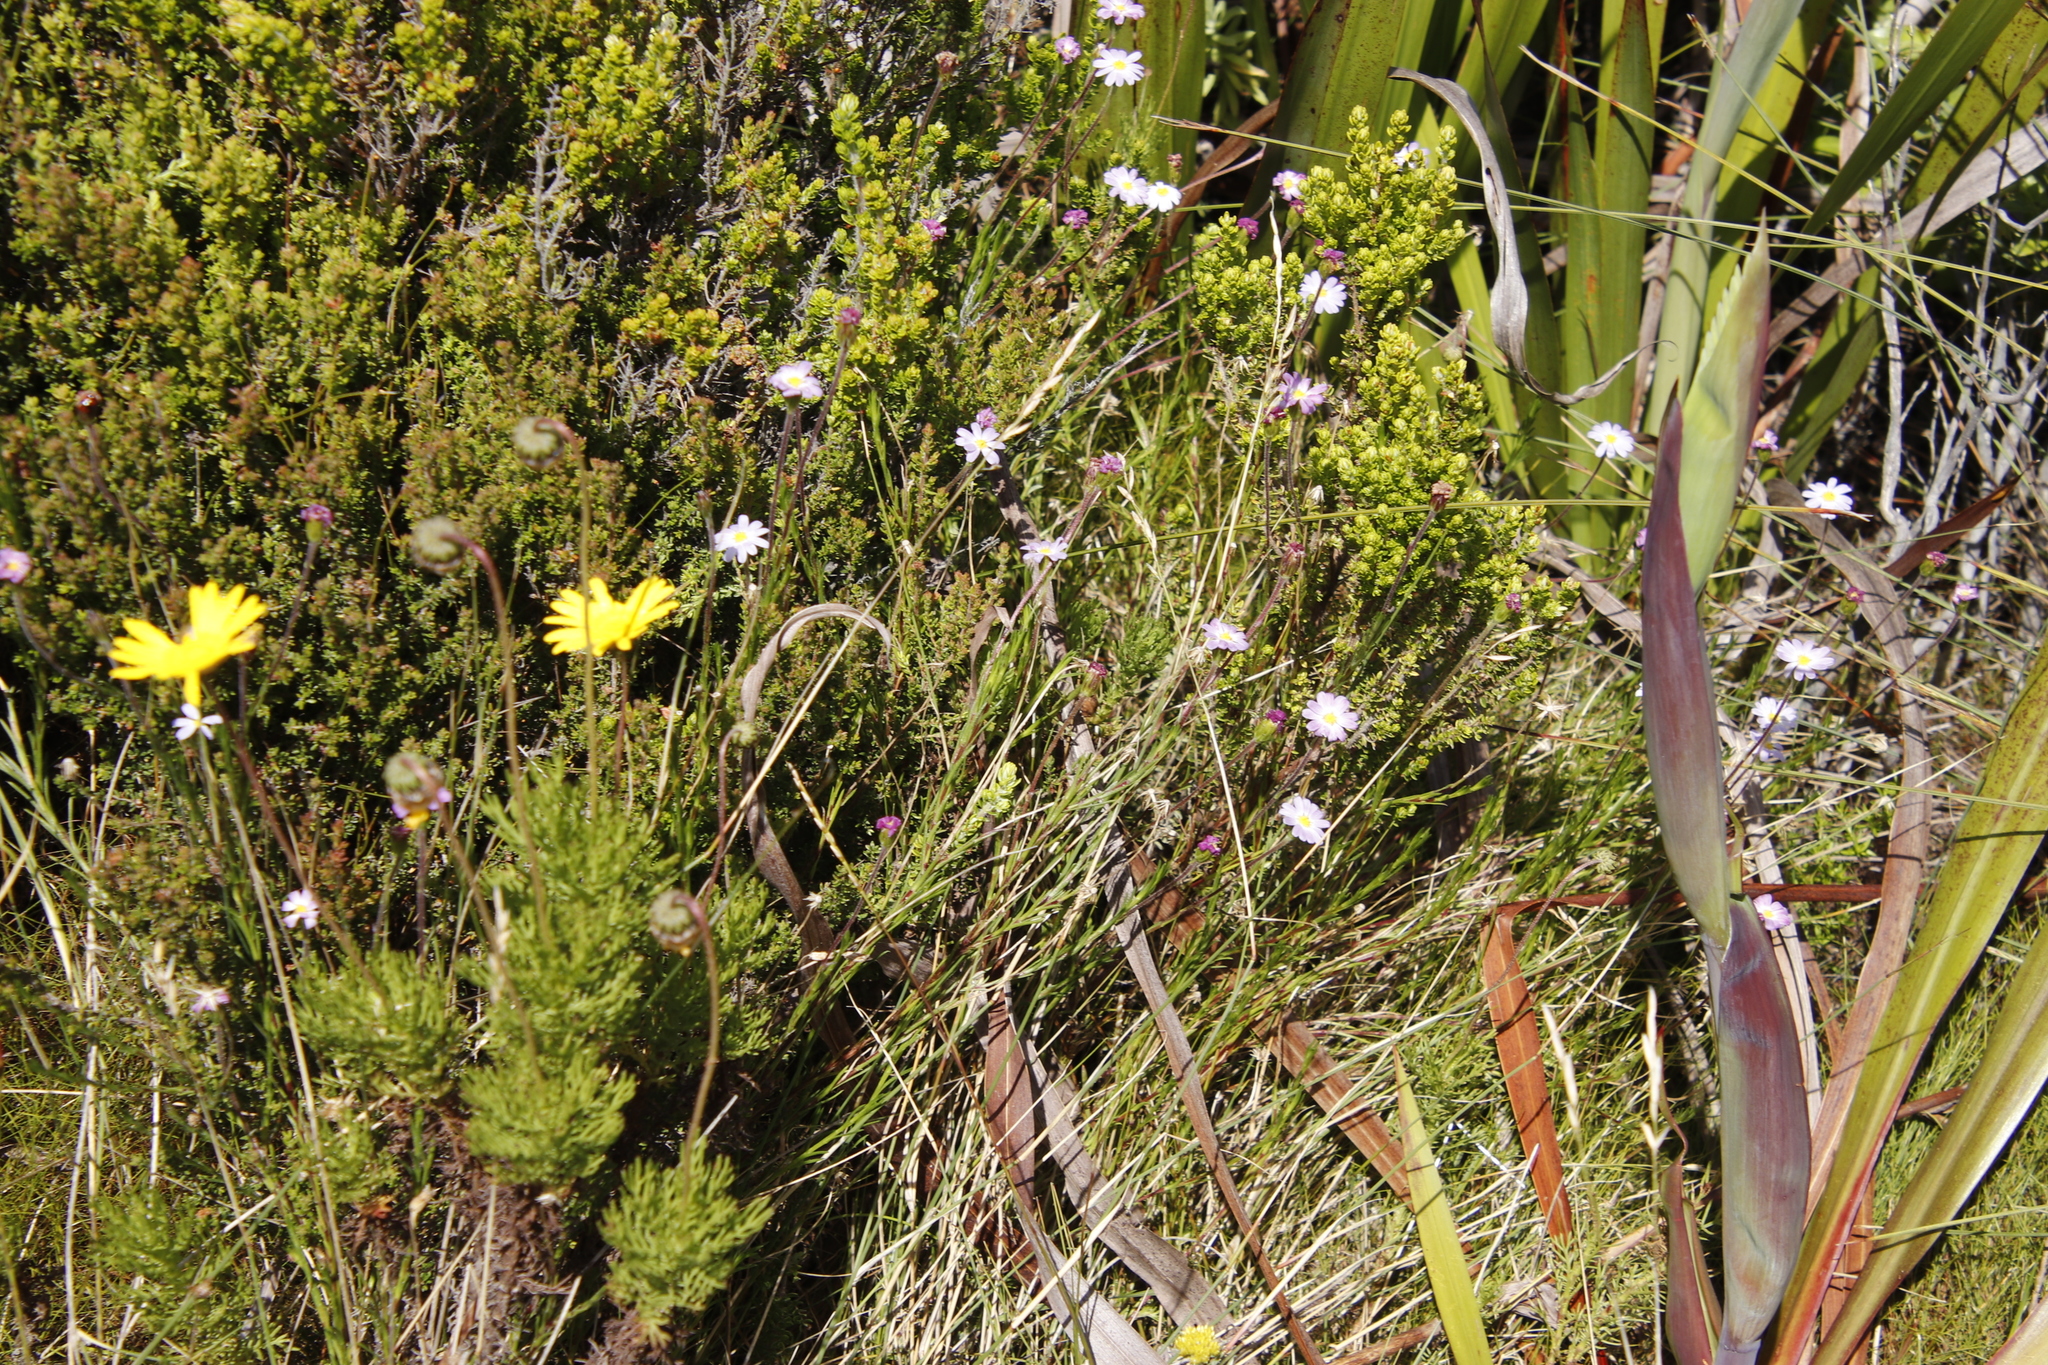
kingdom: Plantae
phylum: Tracheophyta
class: Magnoliopsida
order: Asterales
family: Asteraceae
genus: Zyrphelis
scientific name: Zyrphelis taxifolia
